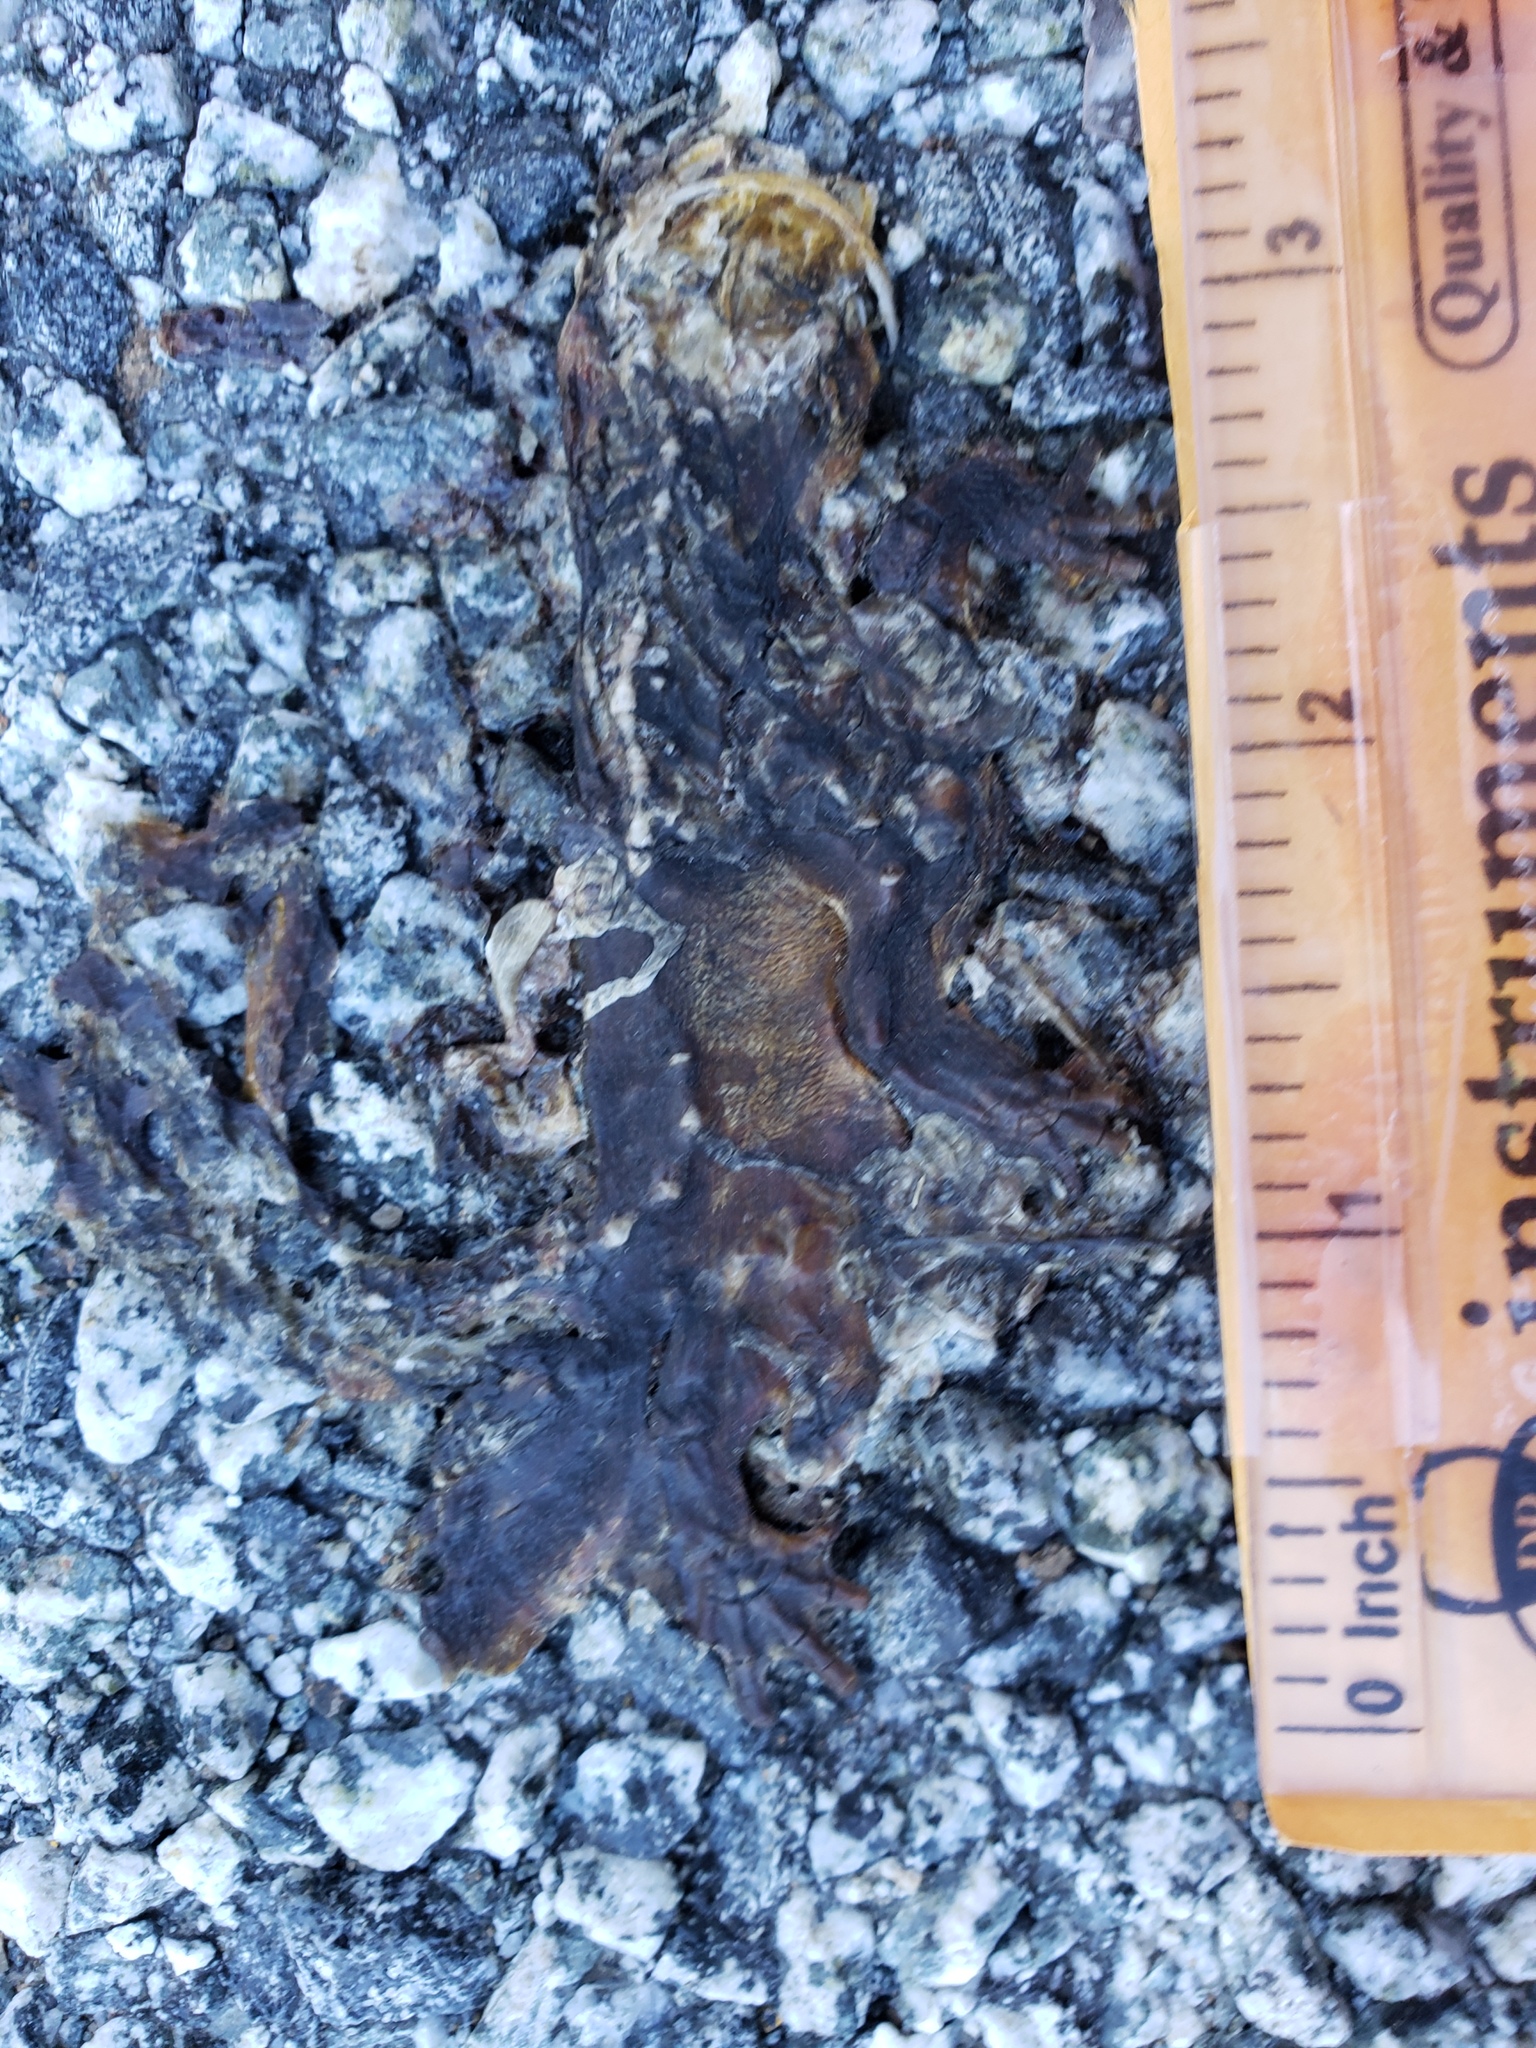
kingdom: Animalia
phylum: Chordata
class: Amphibia
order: Caudata
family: Salamandridae
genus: Taricha
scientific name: Taricha
